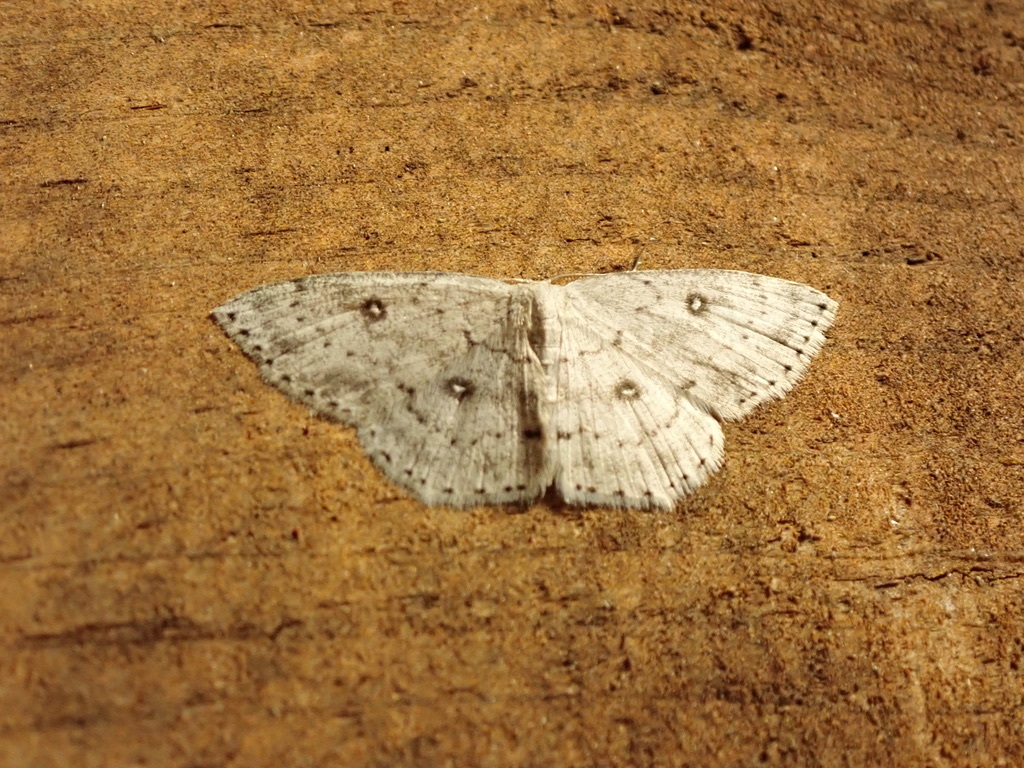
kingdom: Animalia
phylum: Arthropoda
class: Insecta
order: Lepidoptera
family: Geometridae
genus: Cyclophora
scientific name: Cyclophora pendulinaria
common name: Sweet fern geometer
